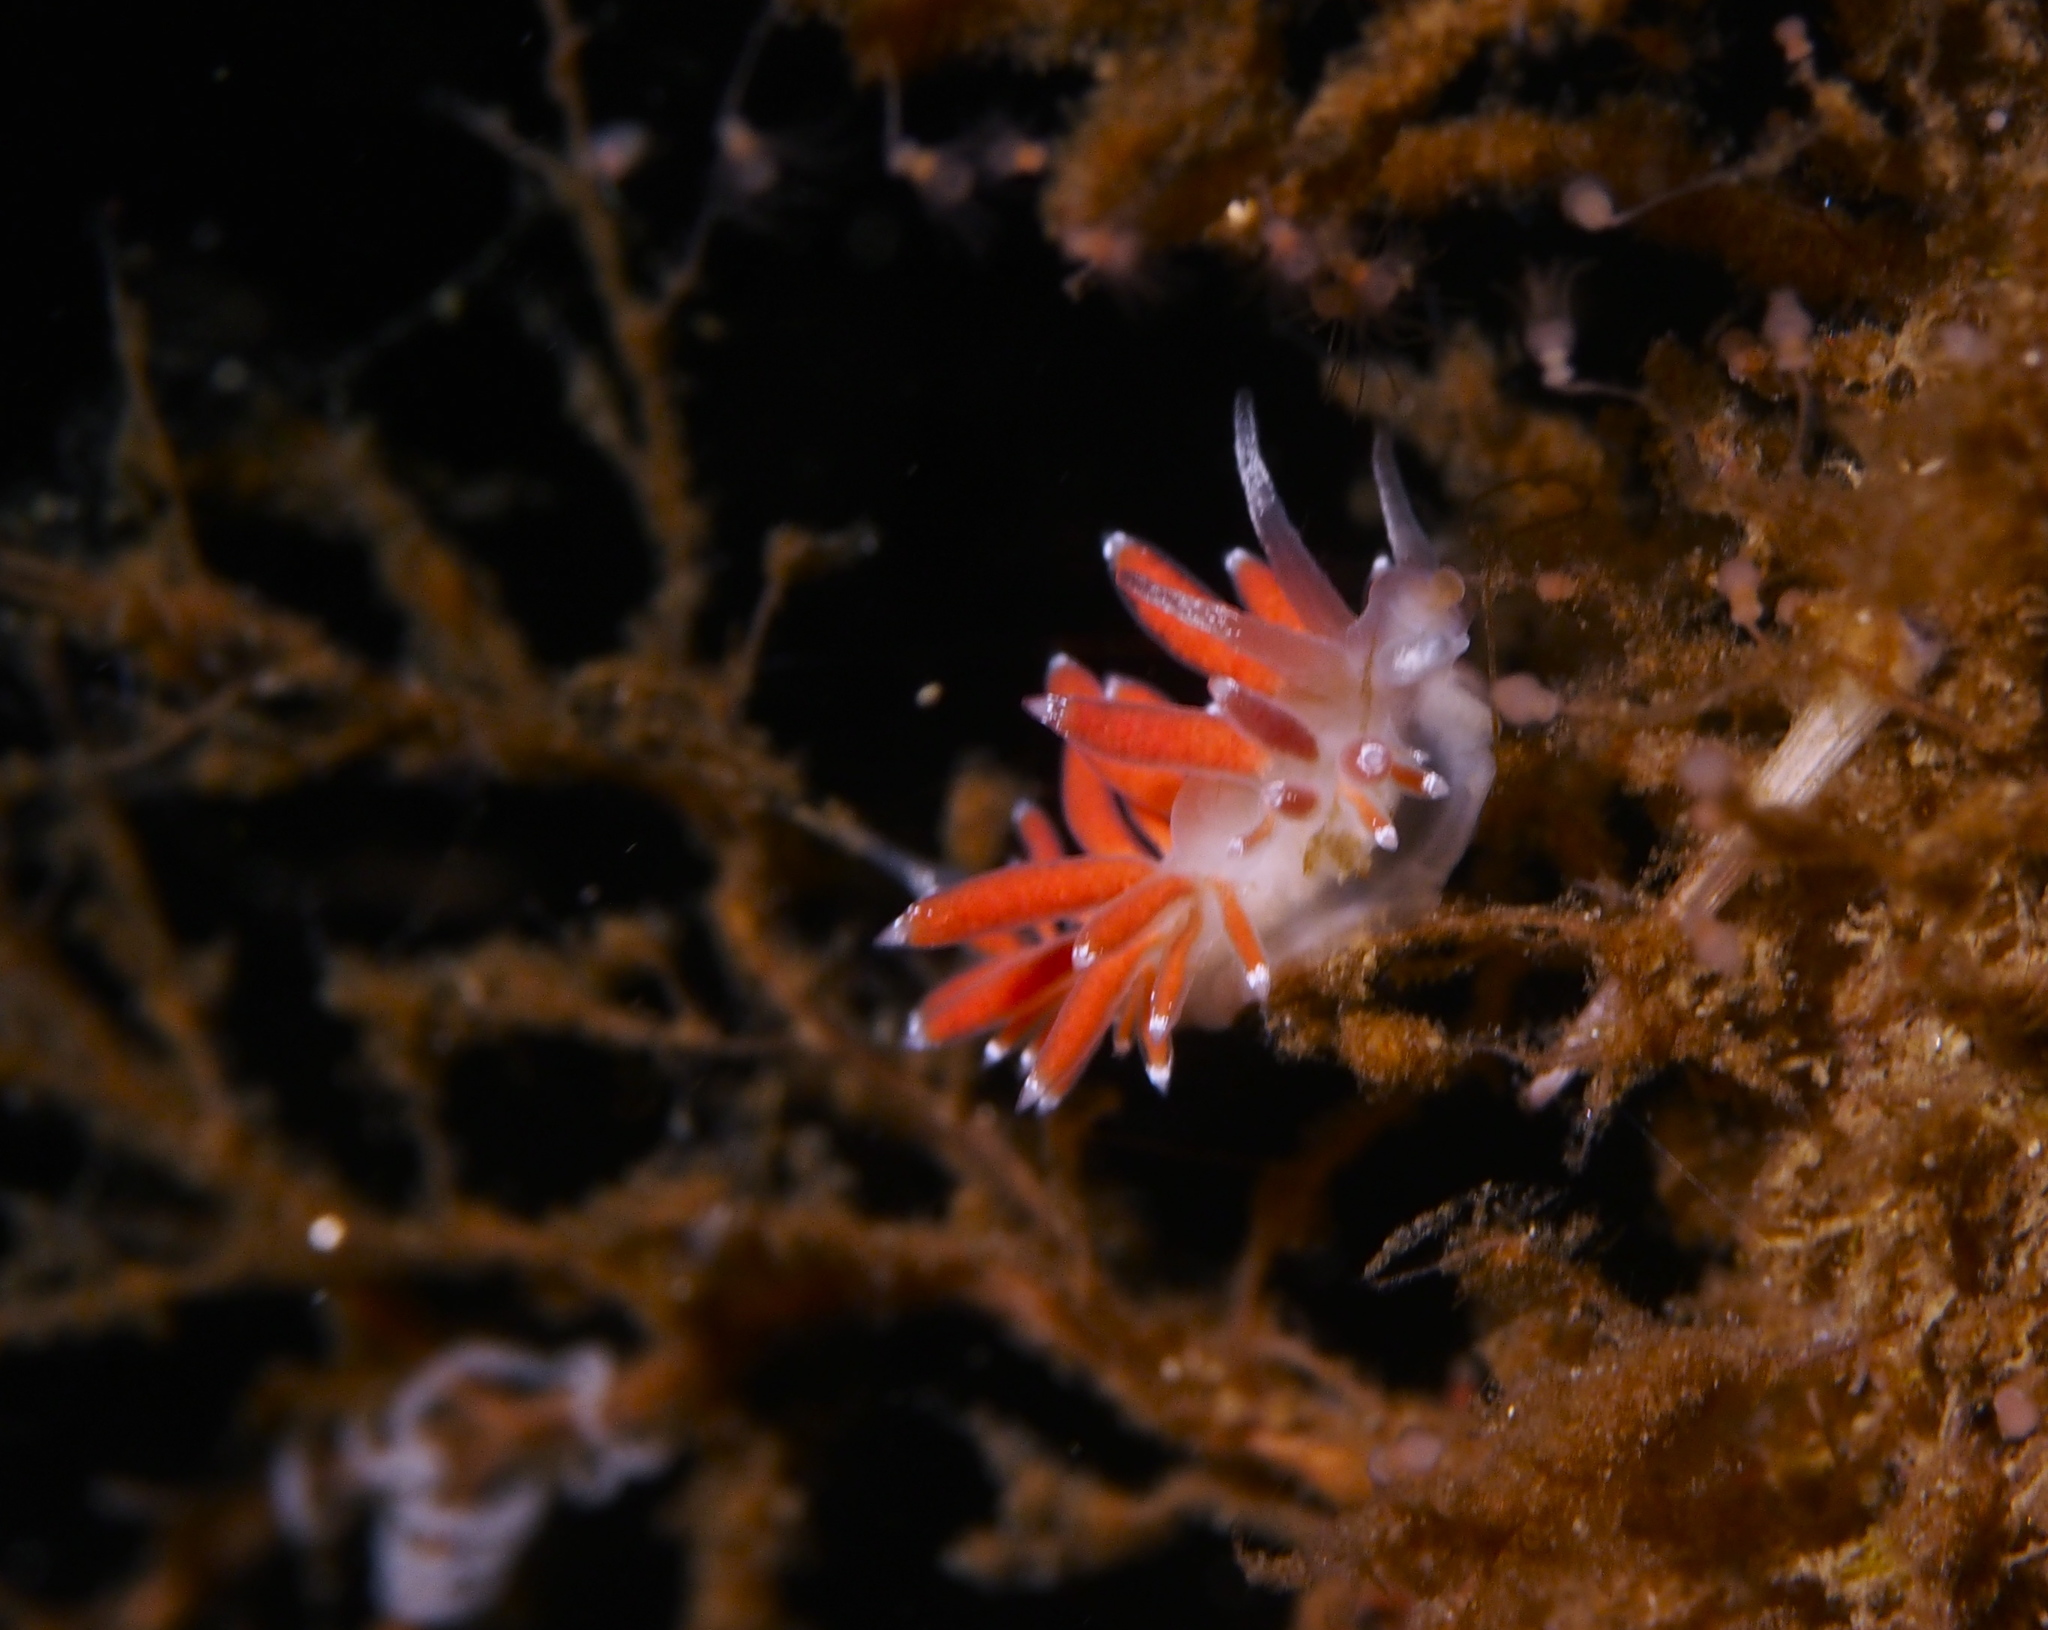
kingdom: Animalia
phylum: Mollusca
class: Gastropoda
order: Nudibranchia
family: Coryphellidae
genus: Coryphella
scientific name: Coryphella gracilis
